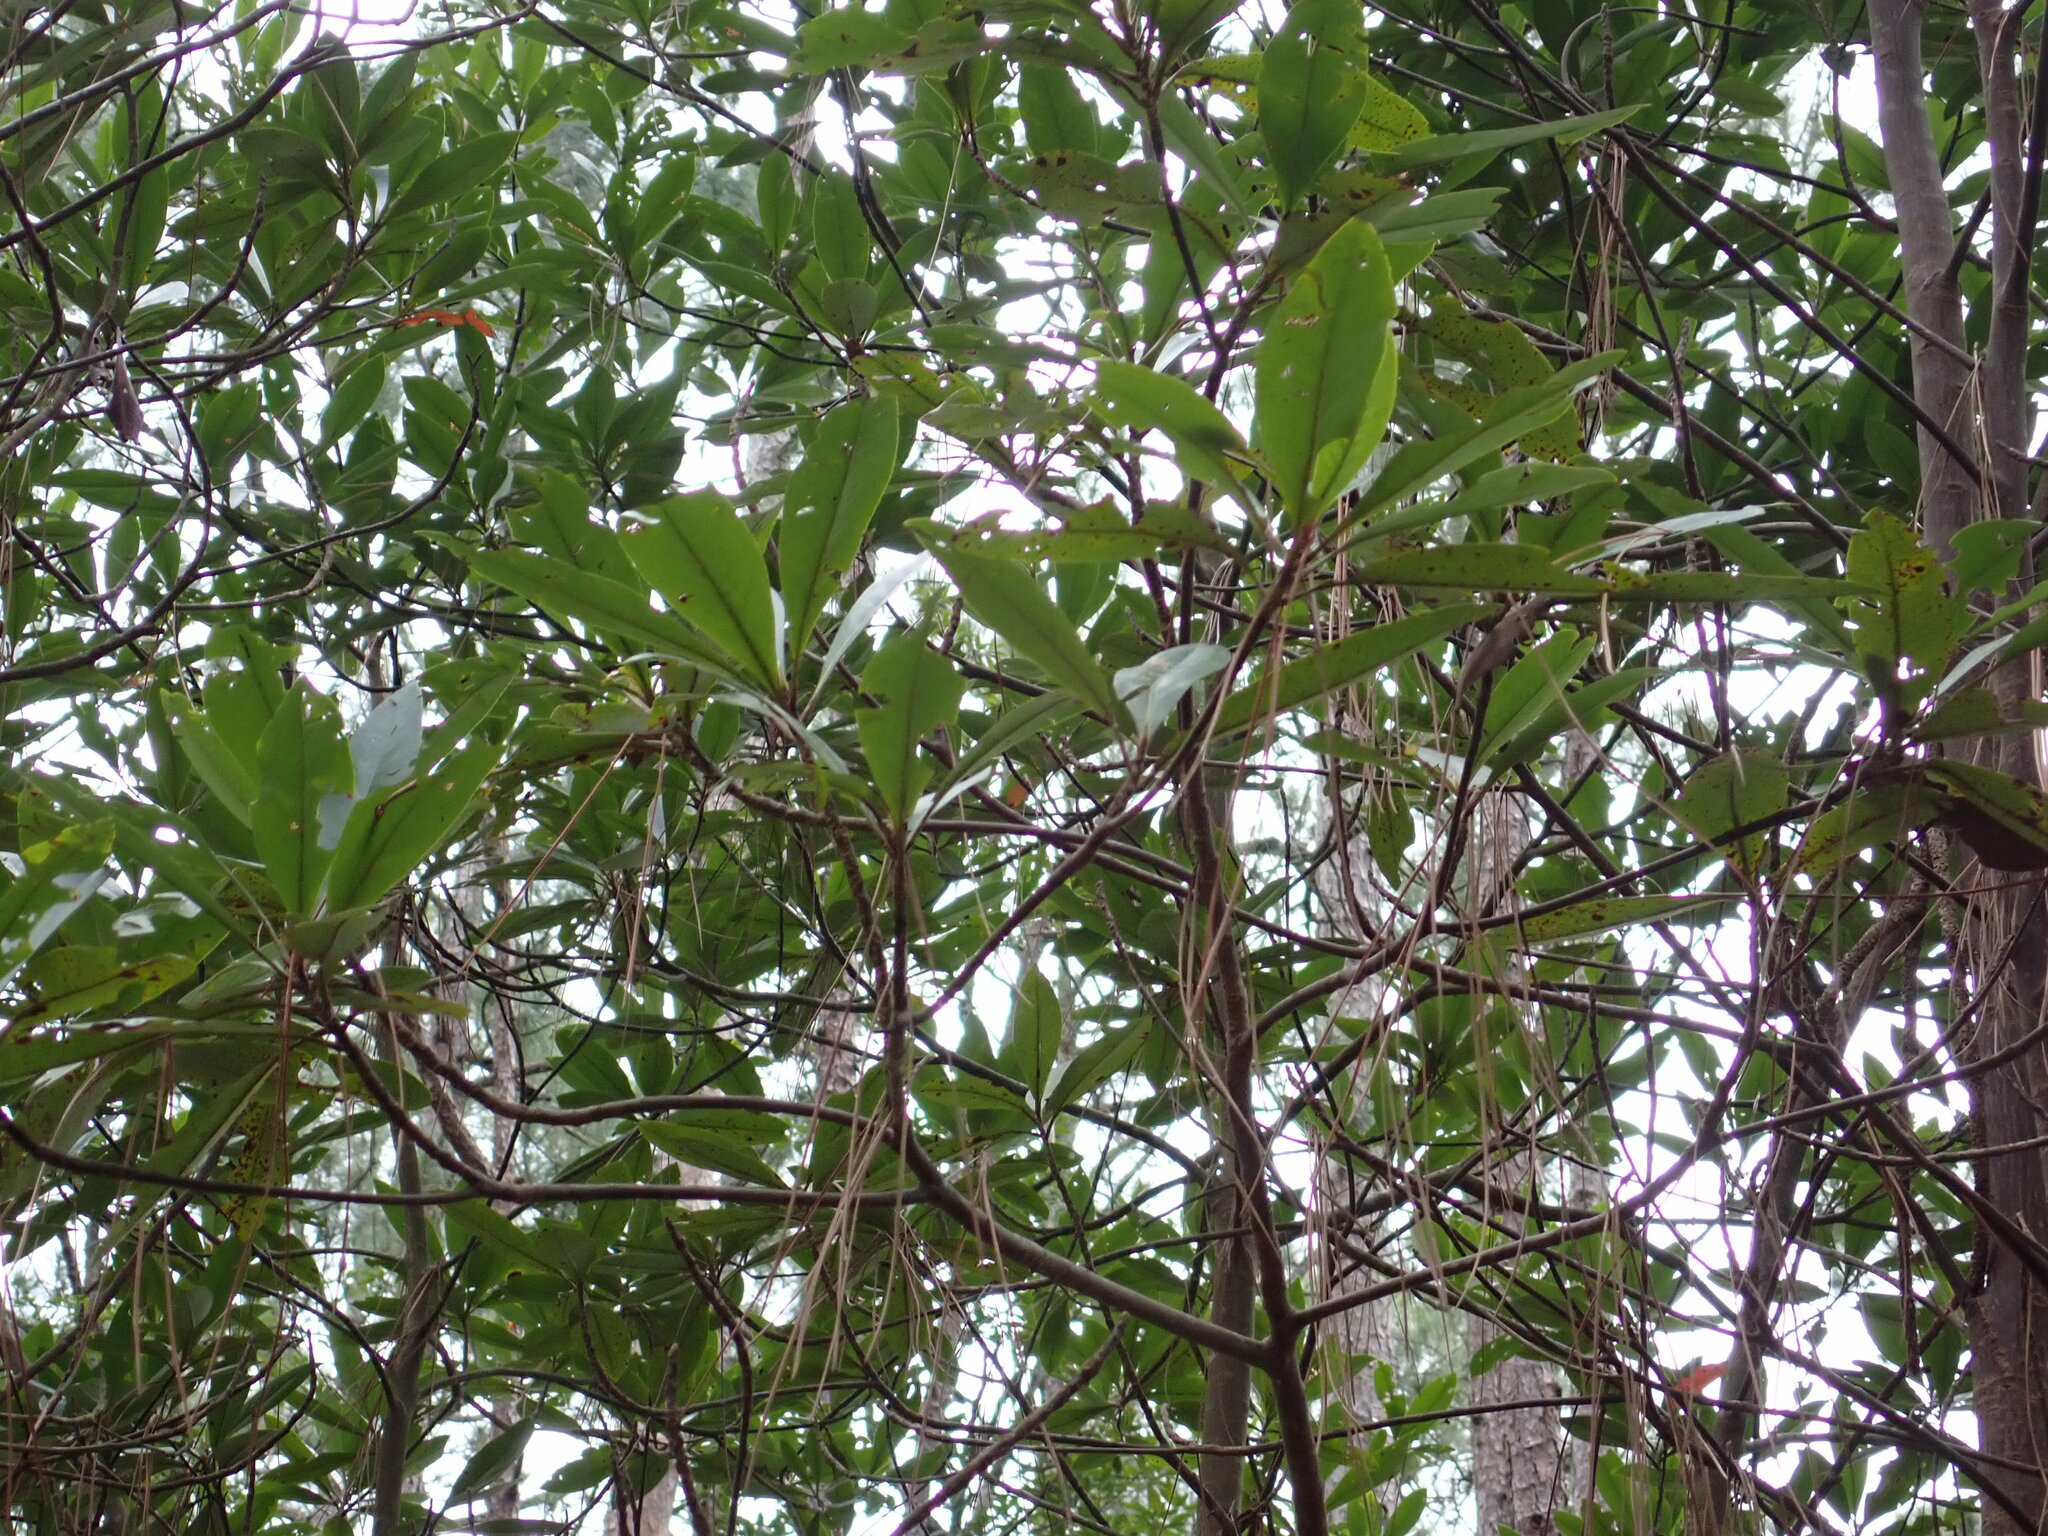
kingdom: Plantae
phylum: Tracheophyta
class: Magnoliopsida
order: Ericales
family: Theaceae
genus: Gordonia
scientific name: Gordonia lasianthus
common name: Loblolly bay
